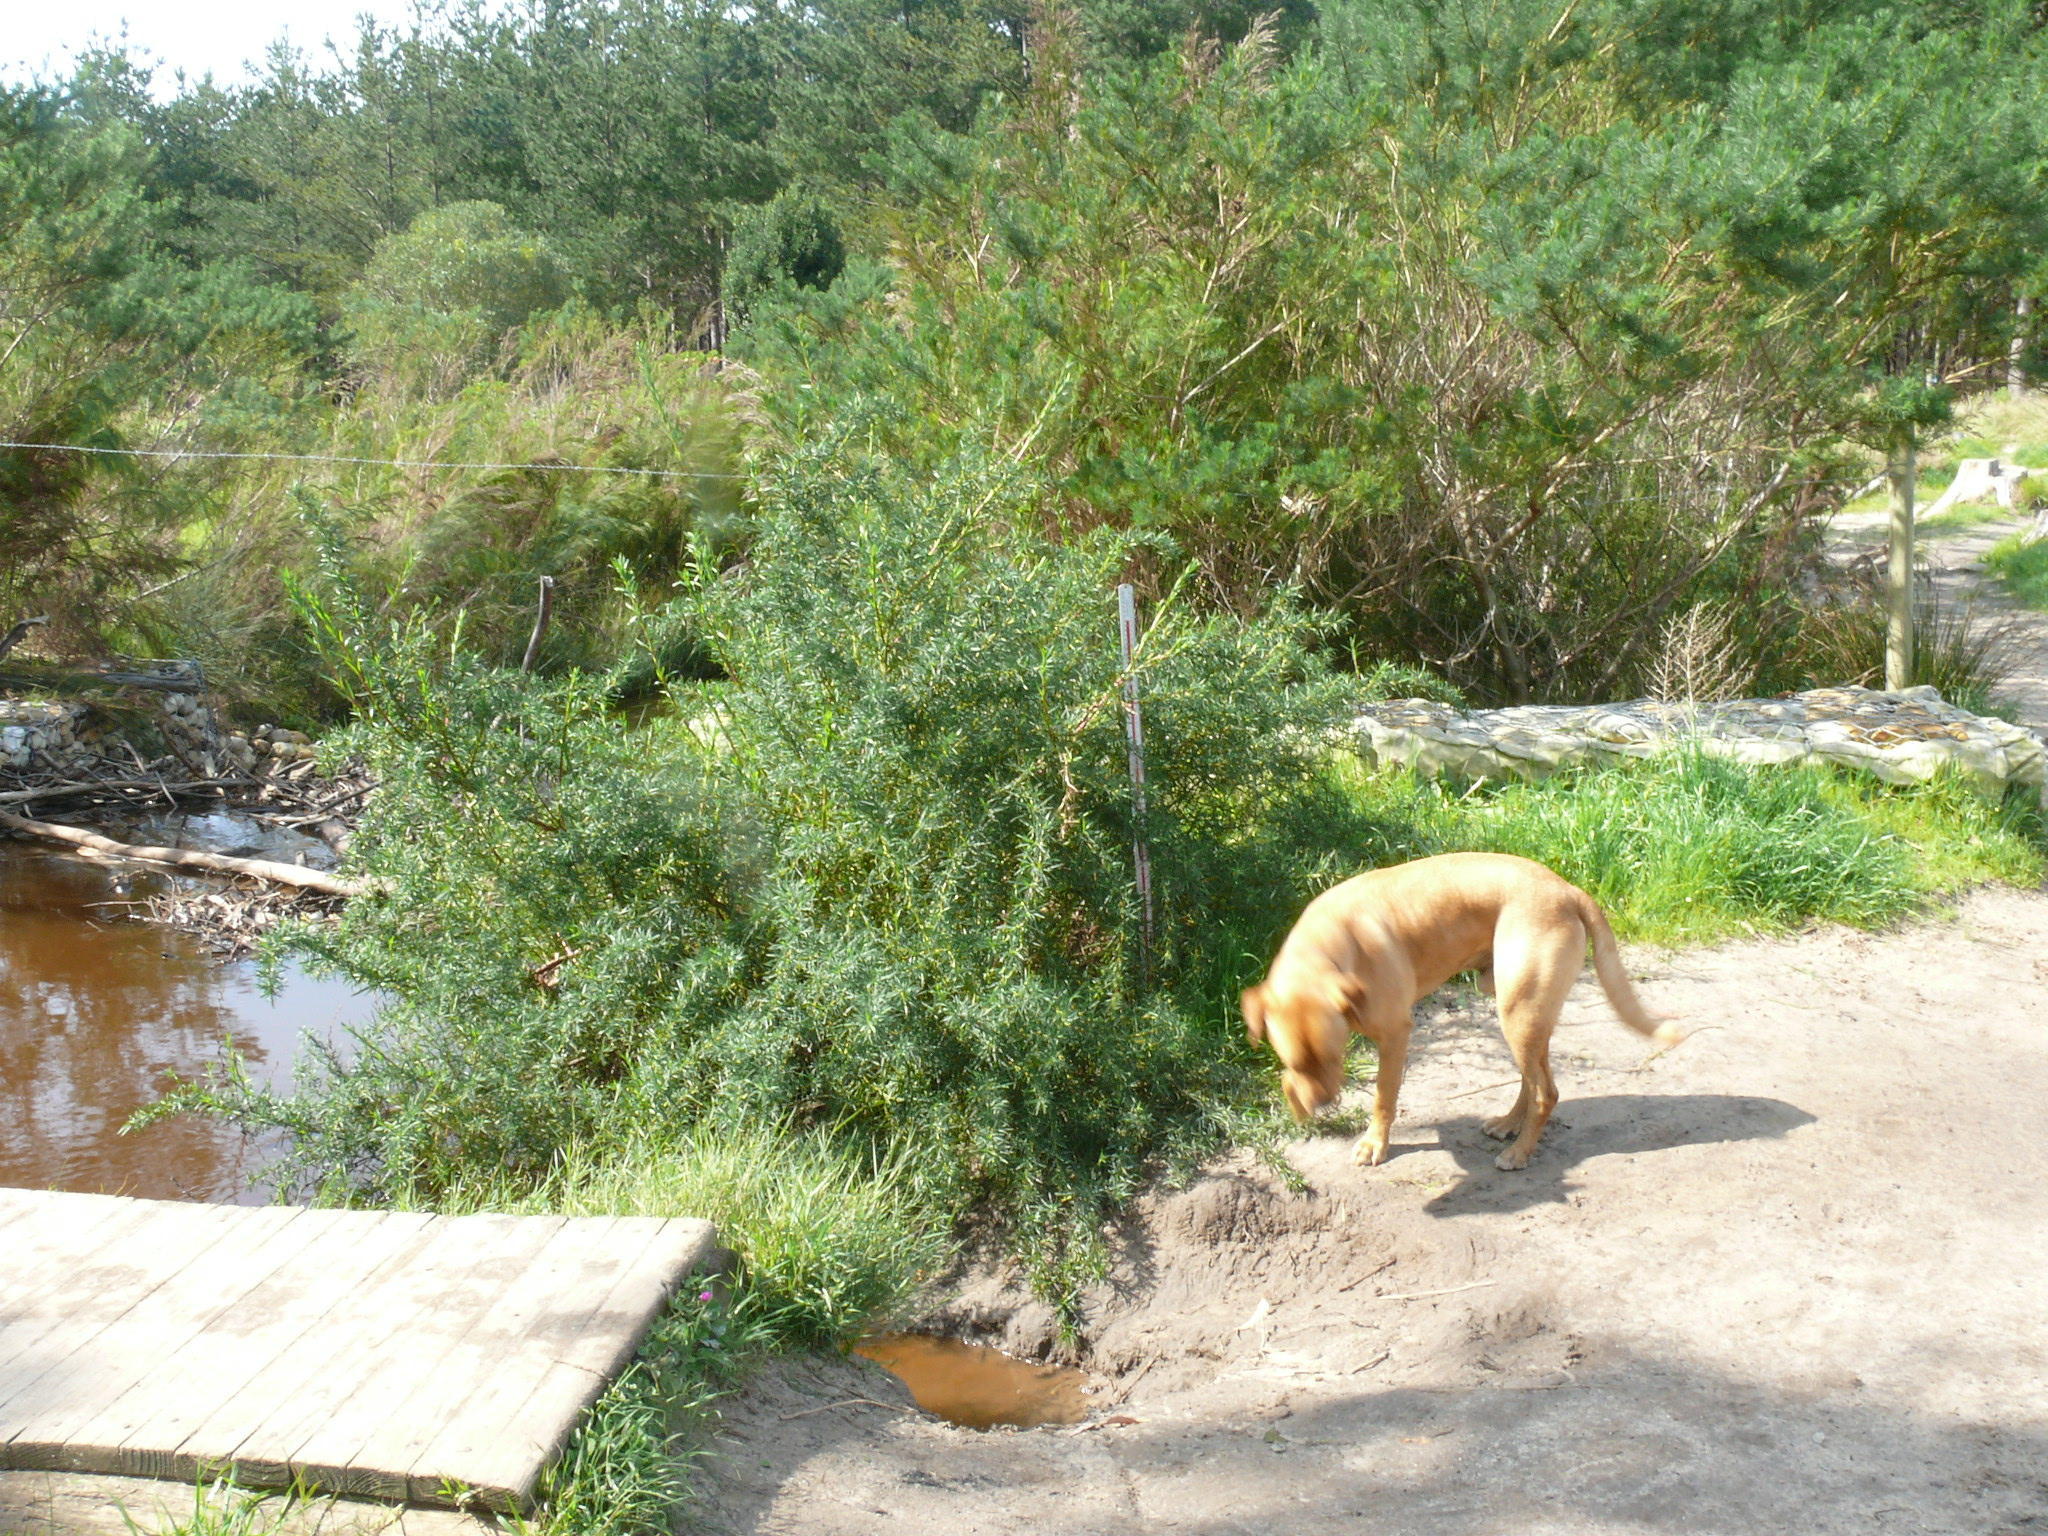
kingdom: Plantae
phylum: Tracheophyta
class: Magnoliopsida
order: Rosales
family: Rosaceae
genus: Cliffortia
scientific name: Cliffortia strobilifera
